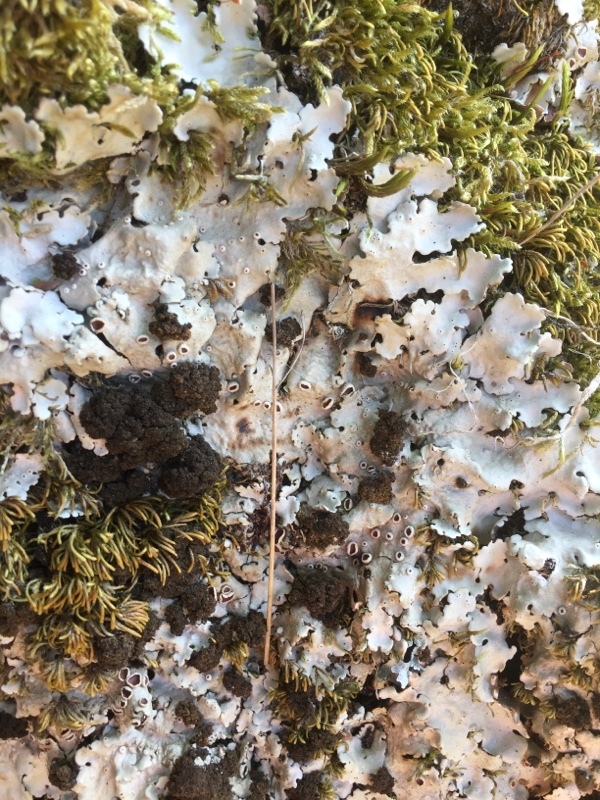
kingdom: Fungi
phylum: Ascomycota
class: Lecanoromycetes
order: Peltigerales
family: Lobariaceae
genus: Ricasolia
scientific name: Ricasolia amplissima
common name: Giant candlewax lichen
